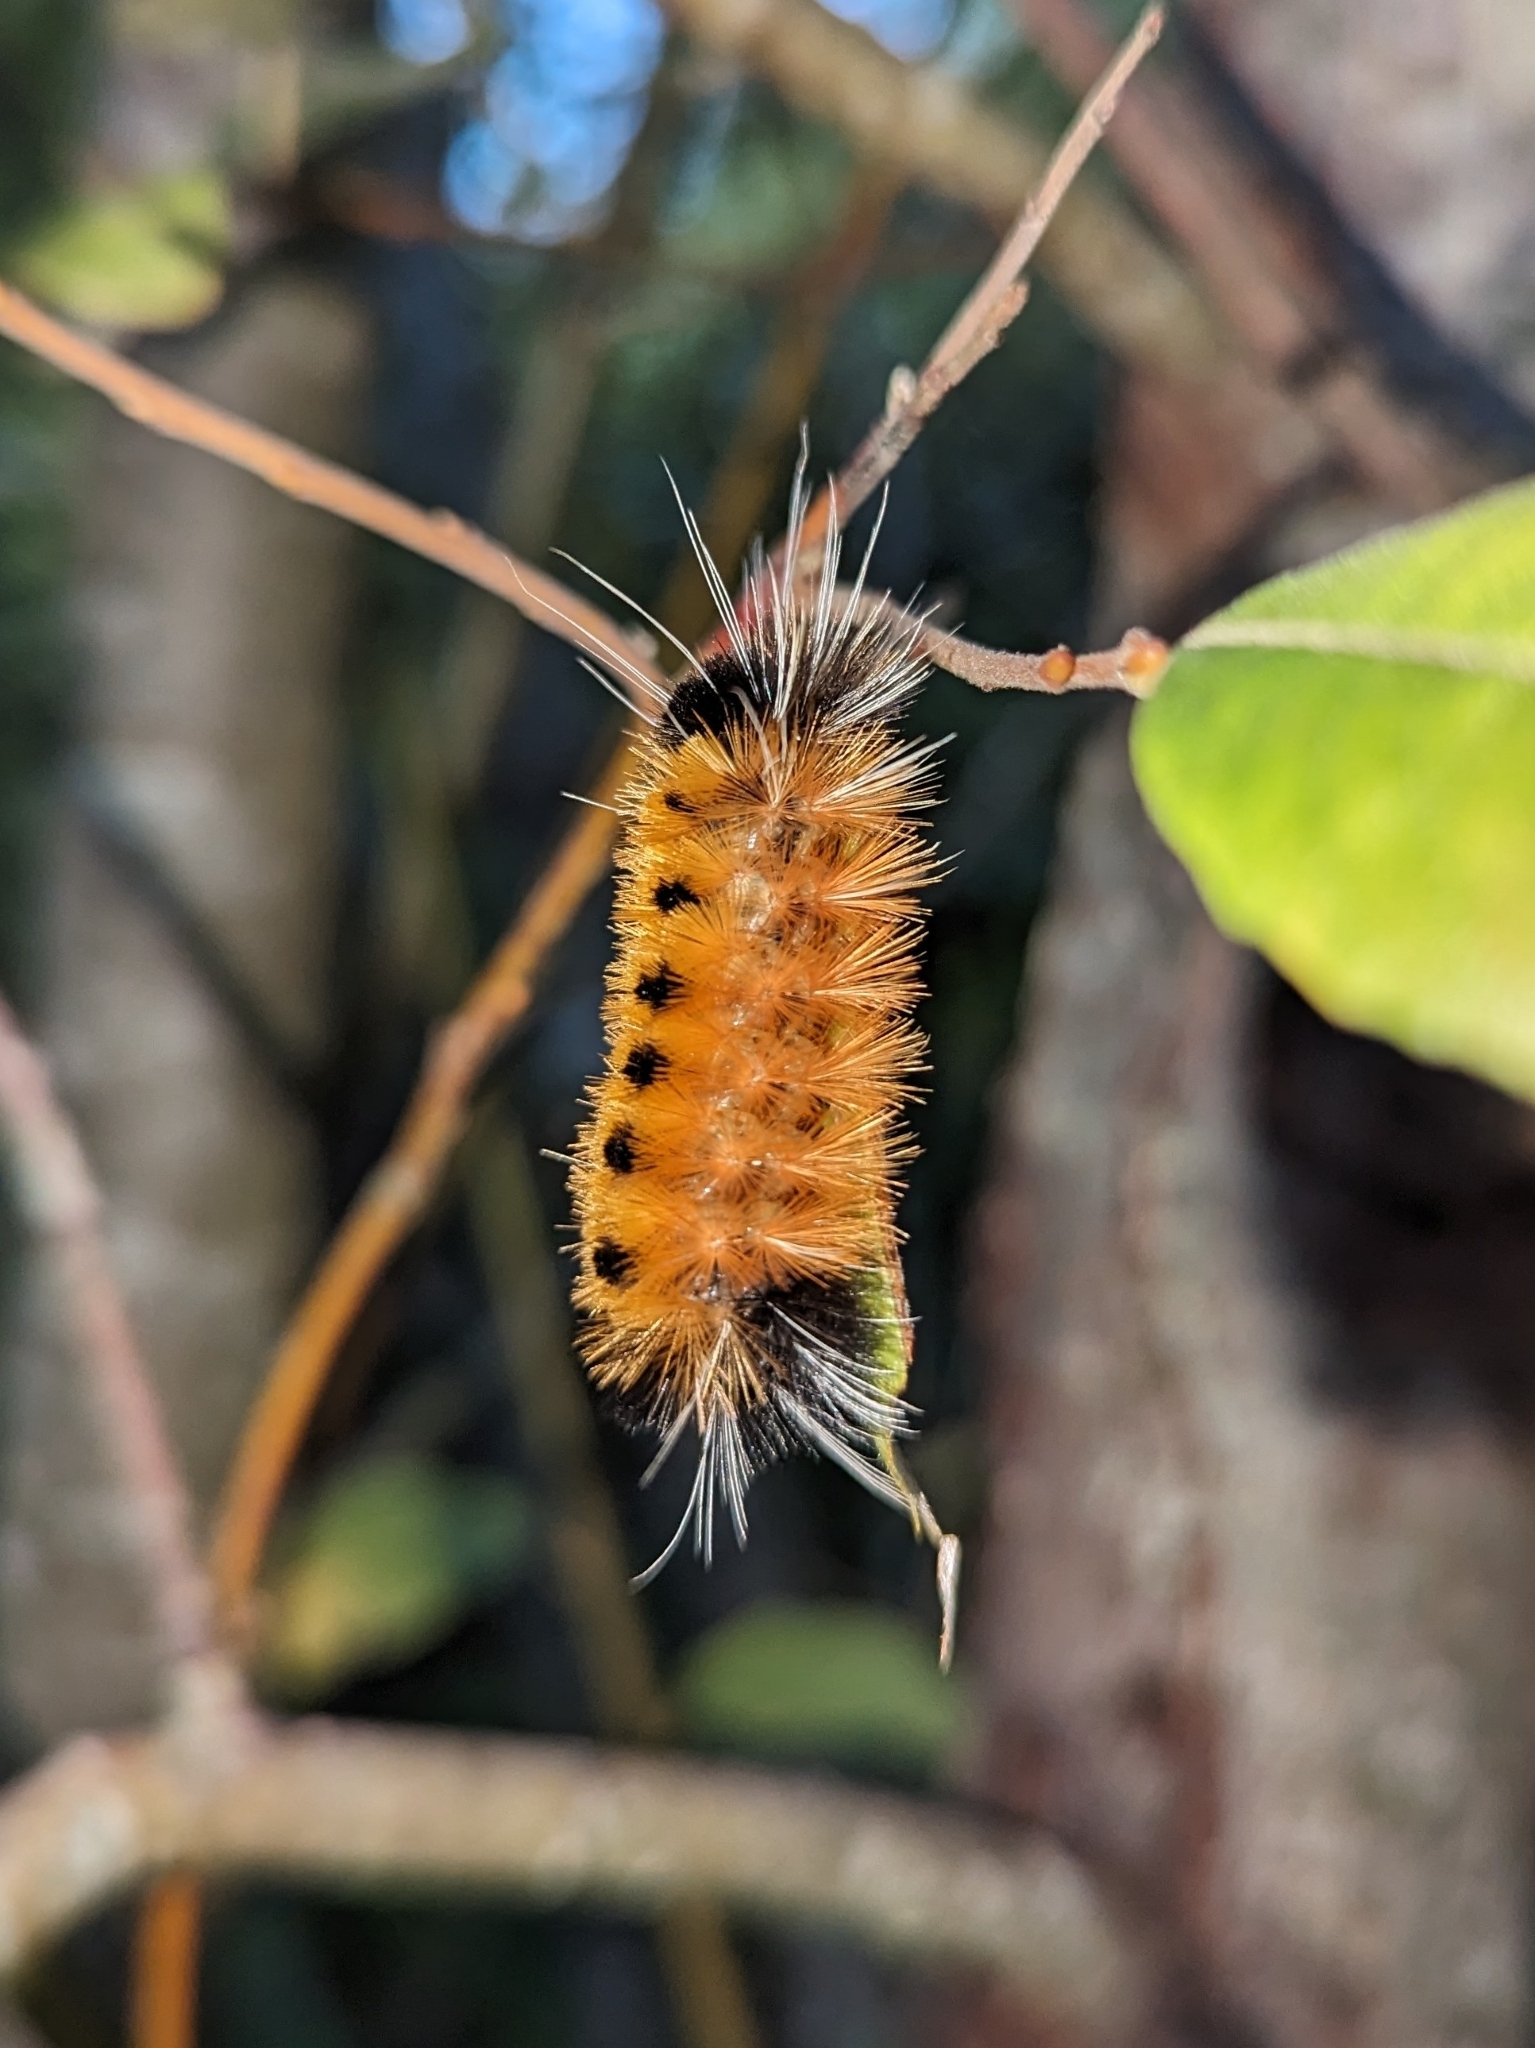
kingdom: Animalia
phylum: Arthropoda
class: Insecta
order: Lepidoptera
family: Erebidae
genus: Lophocampa
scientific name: Lophocampa maculata
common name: Spotted tussock moth
